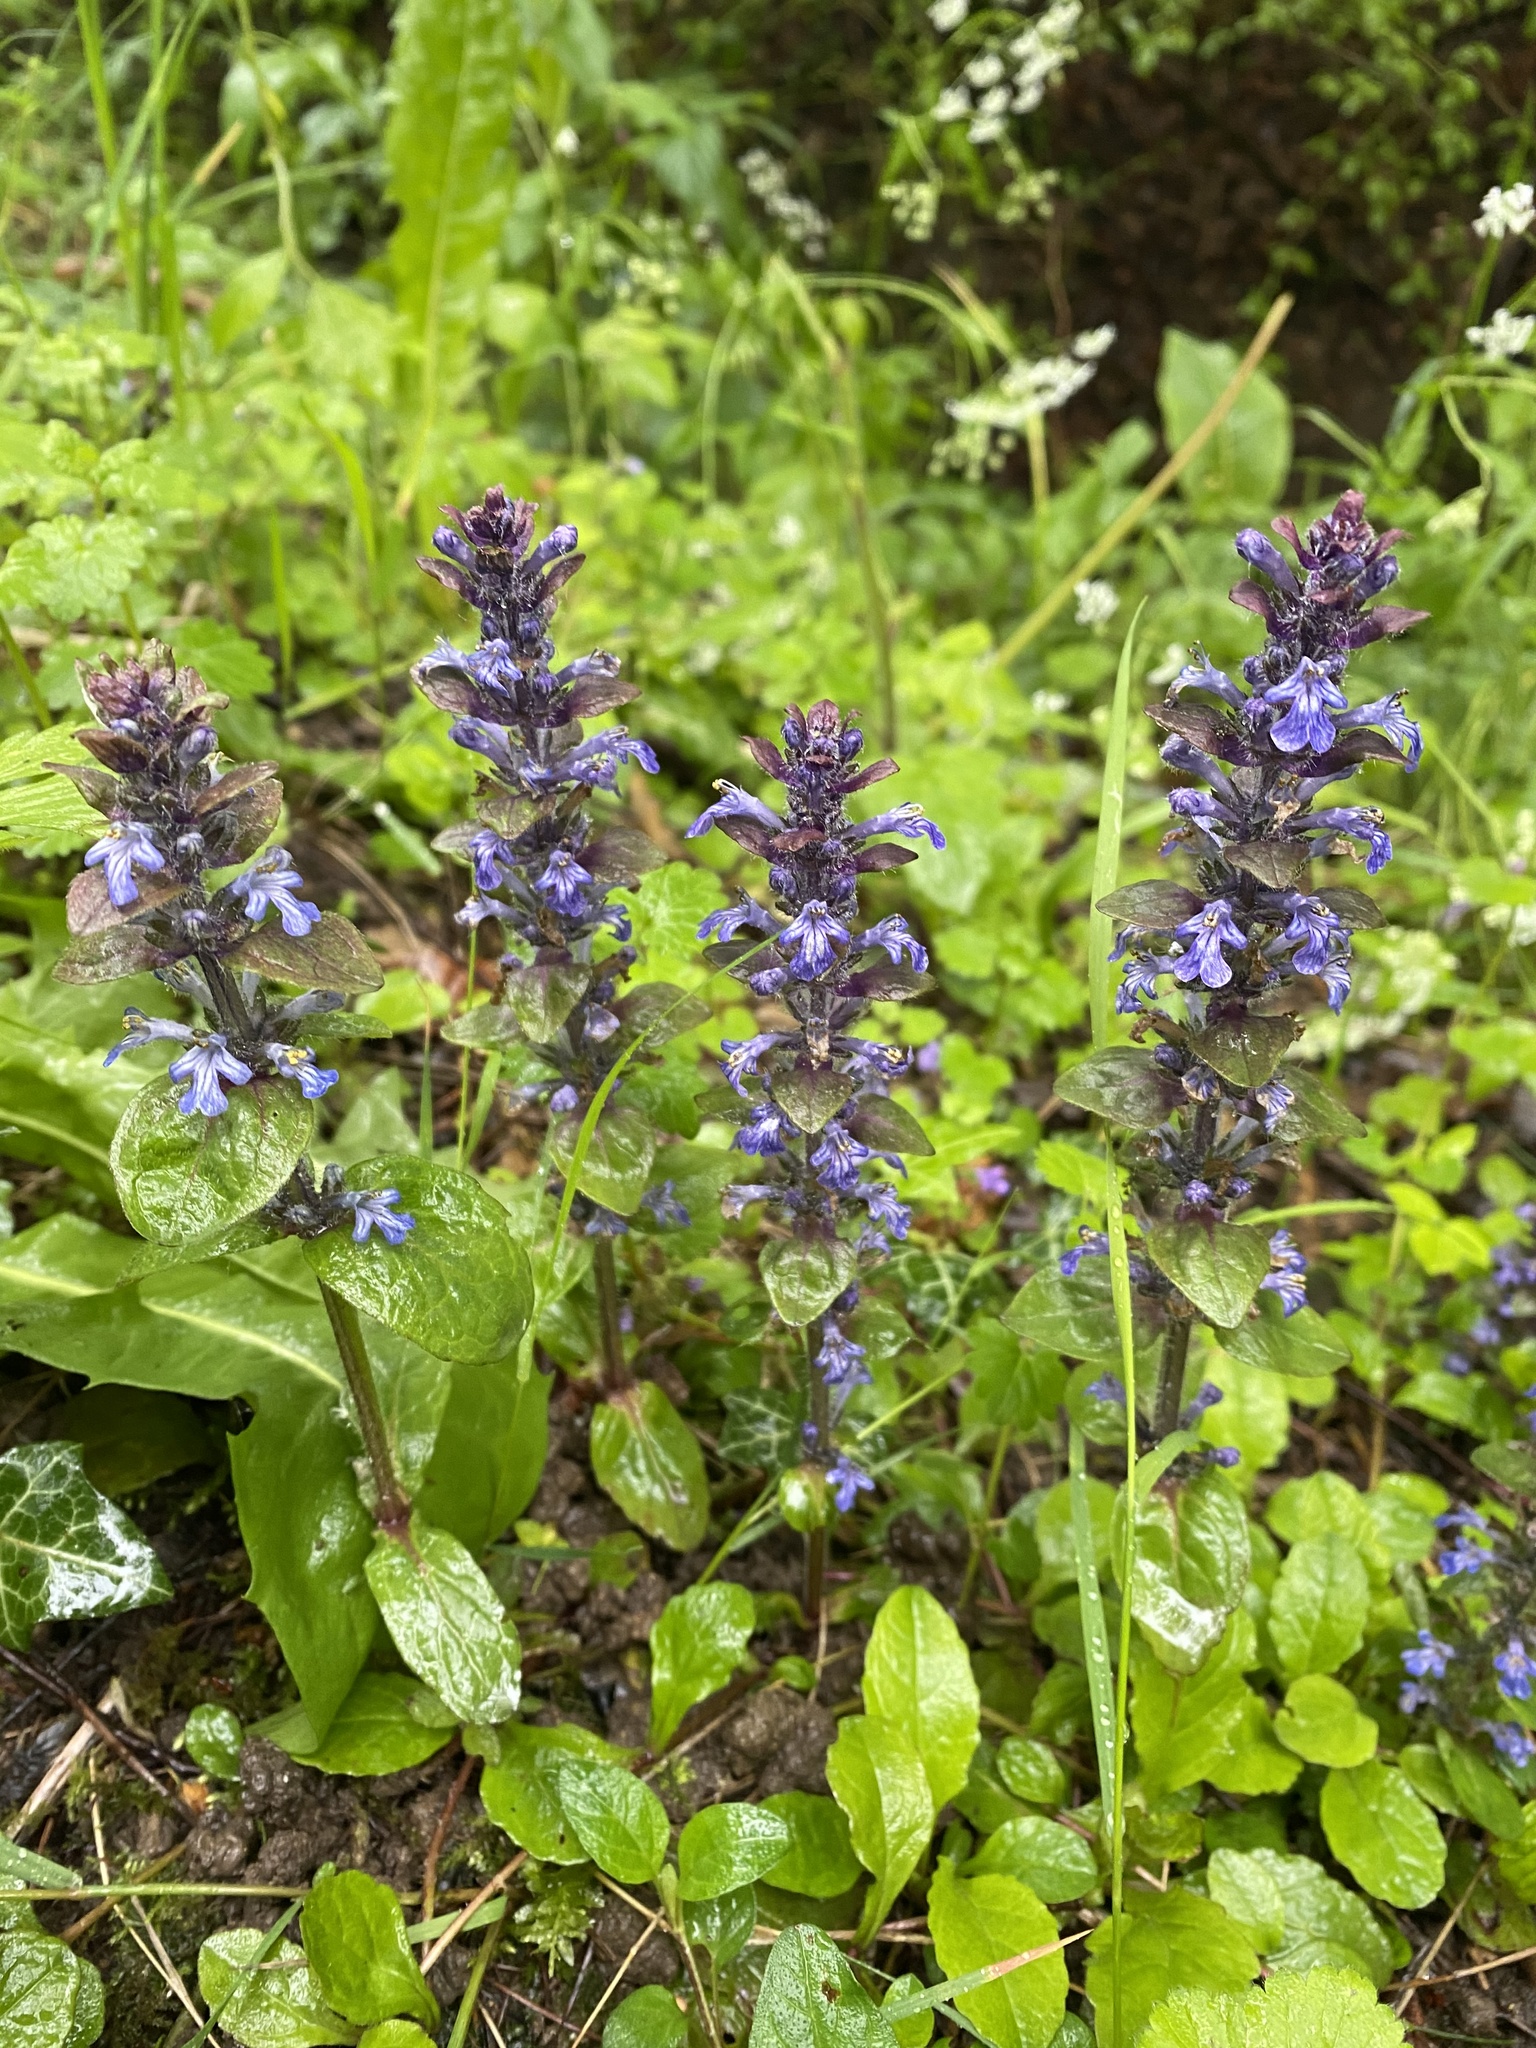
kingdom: Plantae
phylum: Tracheophyta
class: Magnoliopsida
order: Lamiales
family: Lamiaceae
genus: Ajuga
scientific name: Ajuga reptans
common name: Bugle
